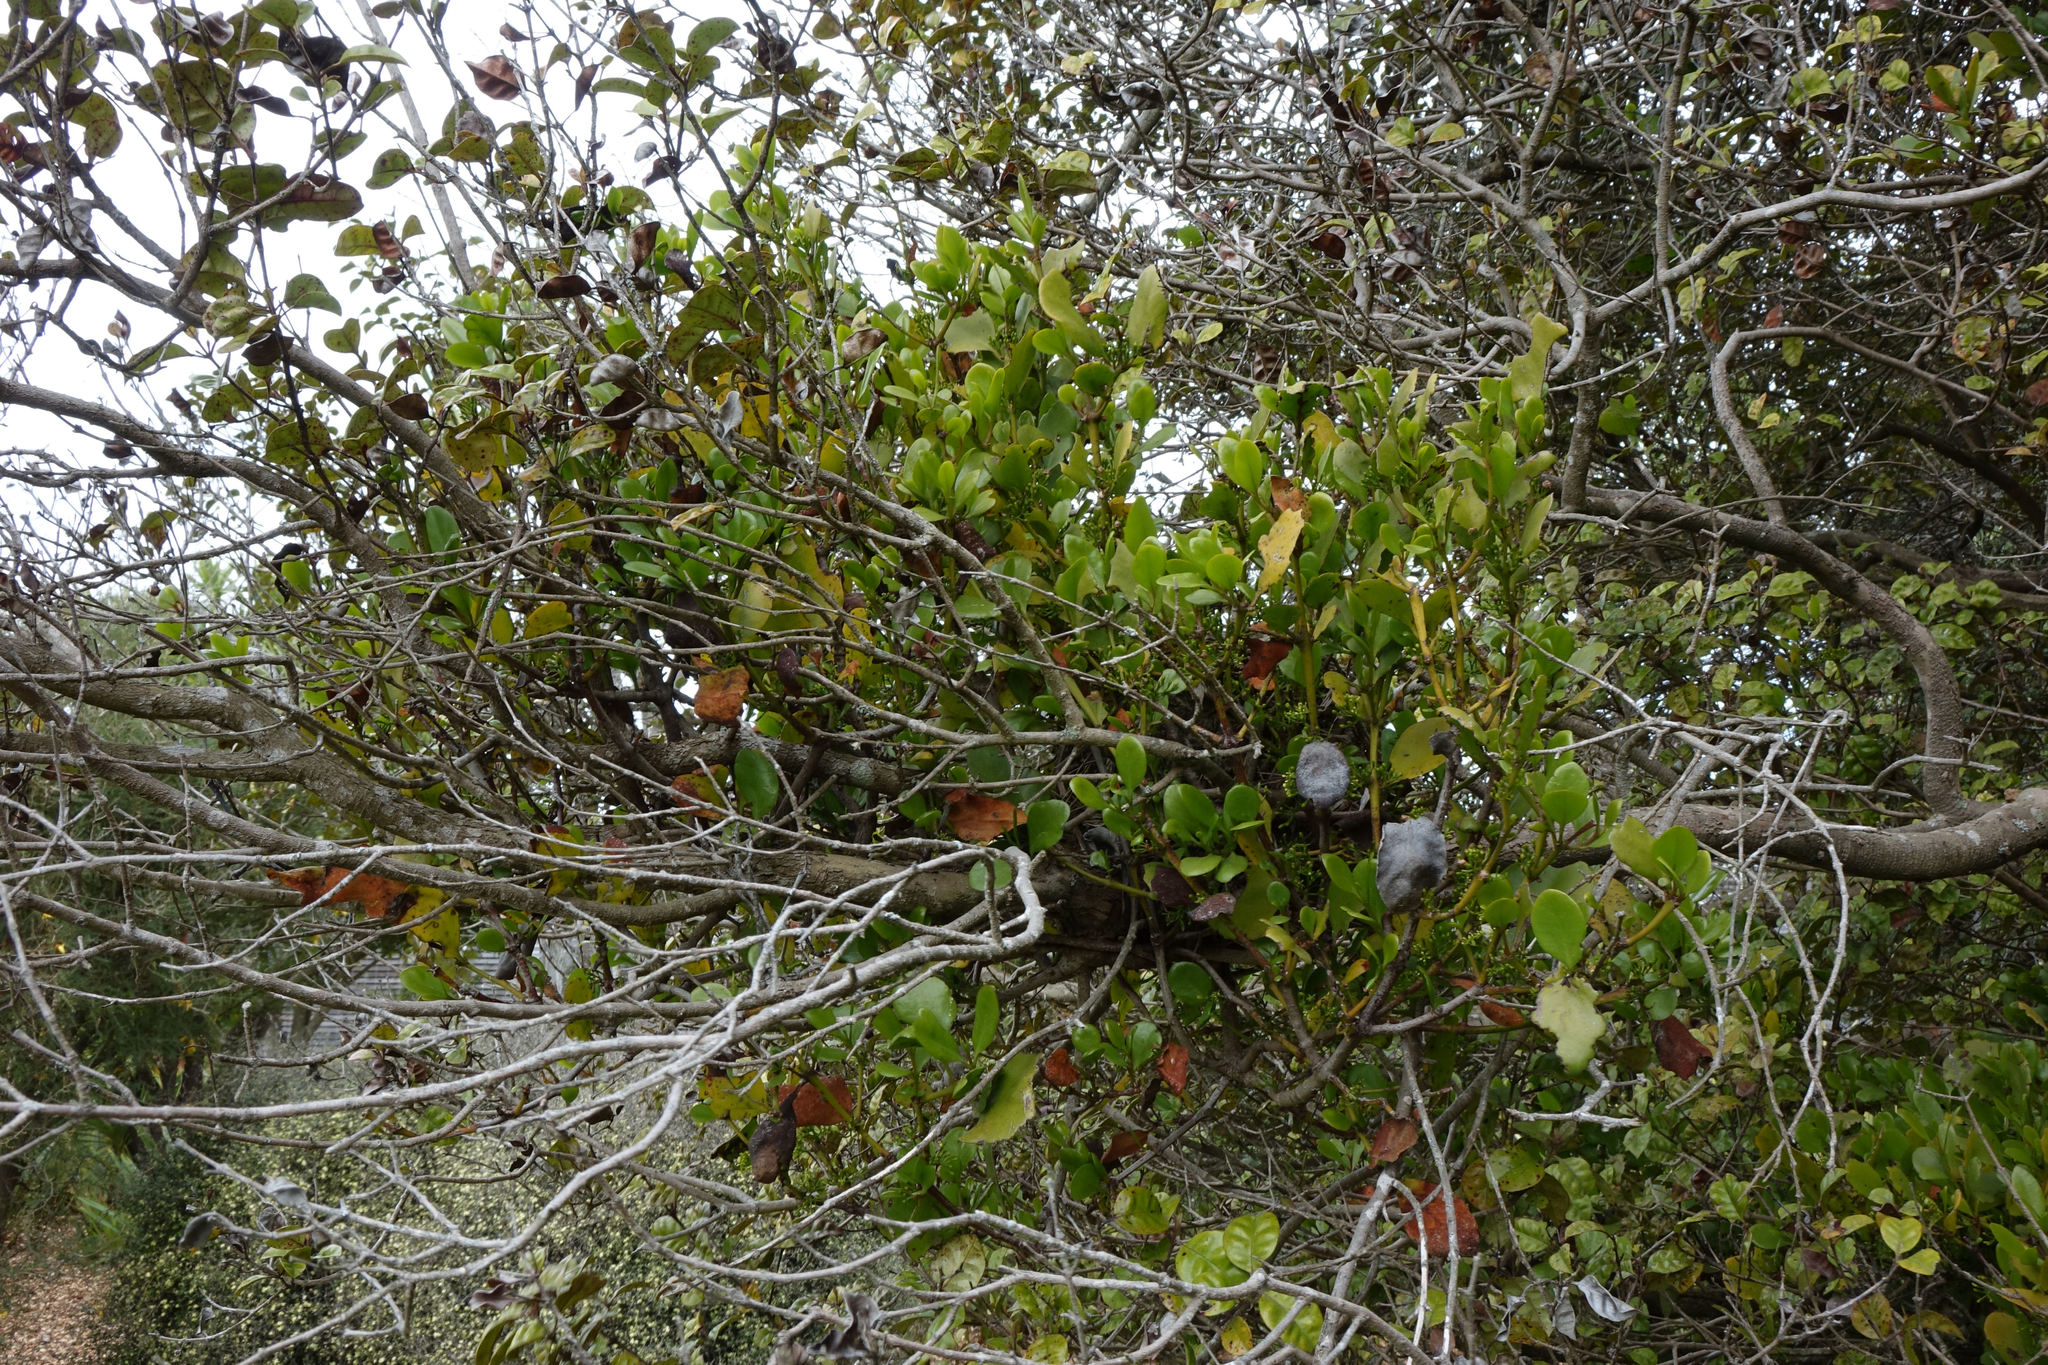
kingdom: Plantae
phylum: Tracheophyta
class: Magnoliopsida
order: Santalales
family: Loranthaceae
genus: Ileostylus
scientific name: Ileostylus micranthus
